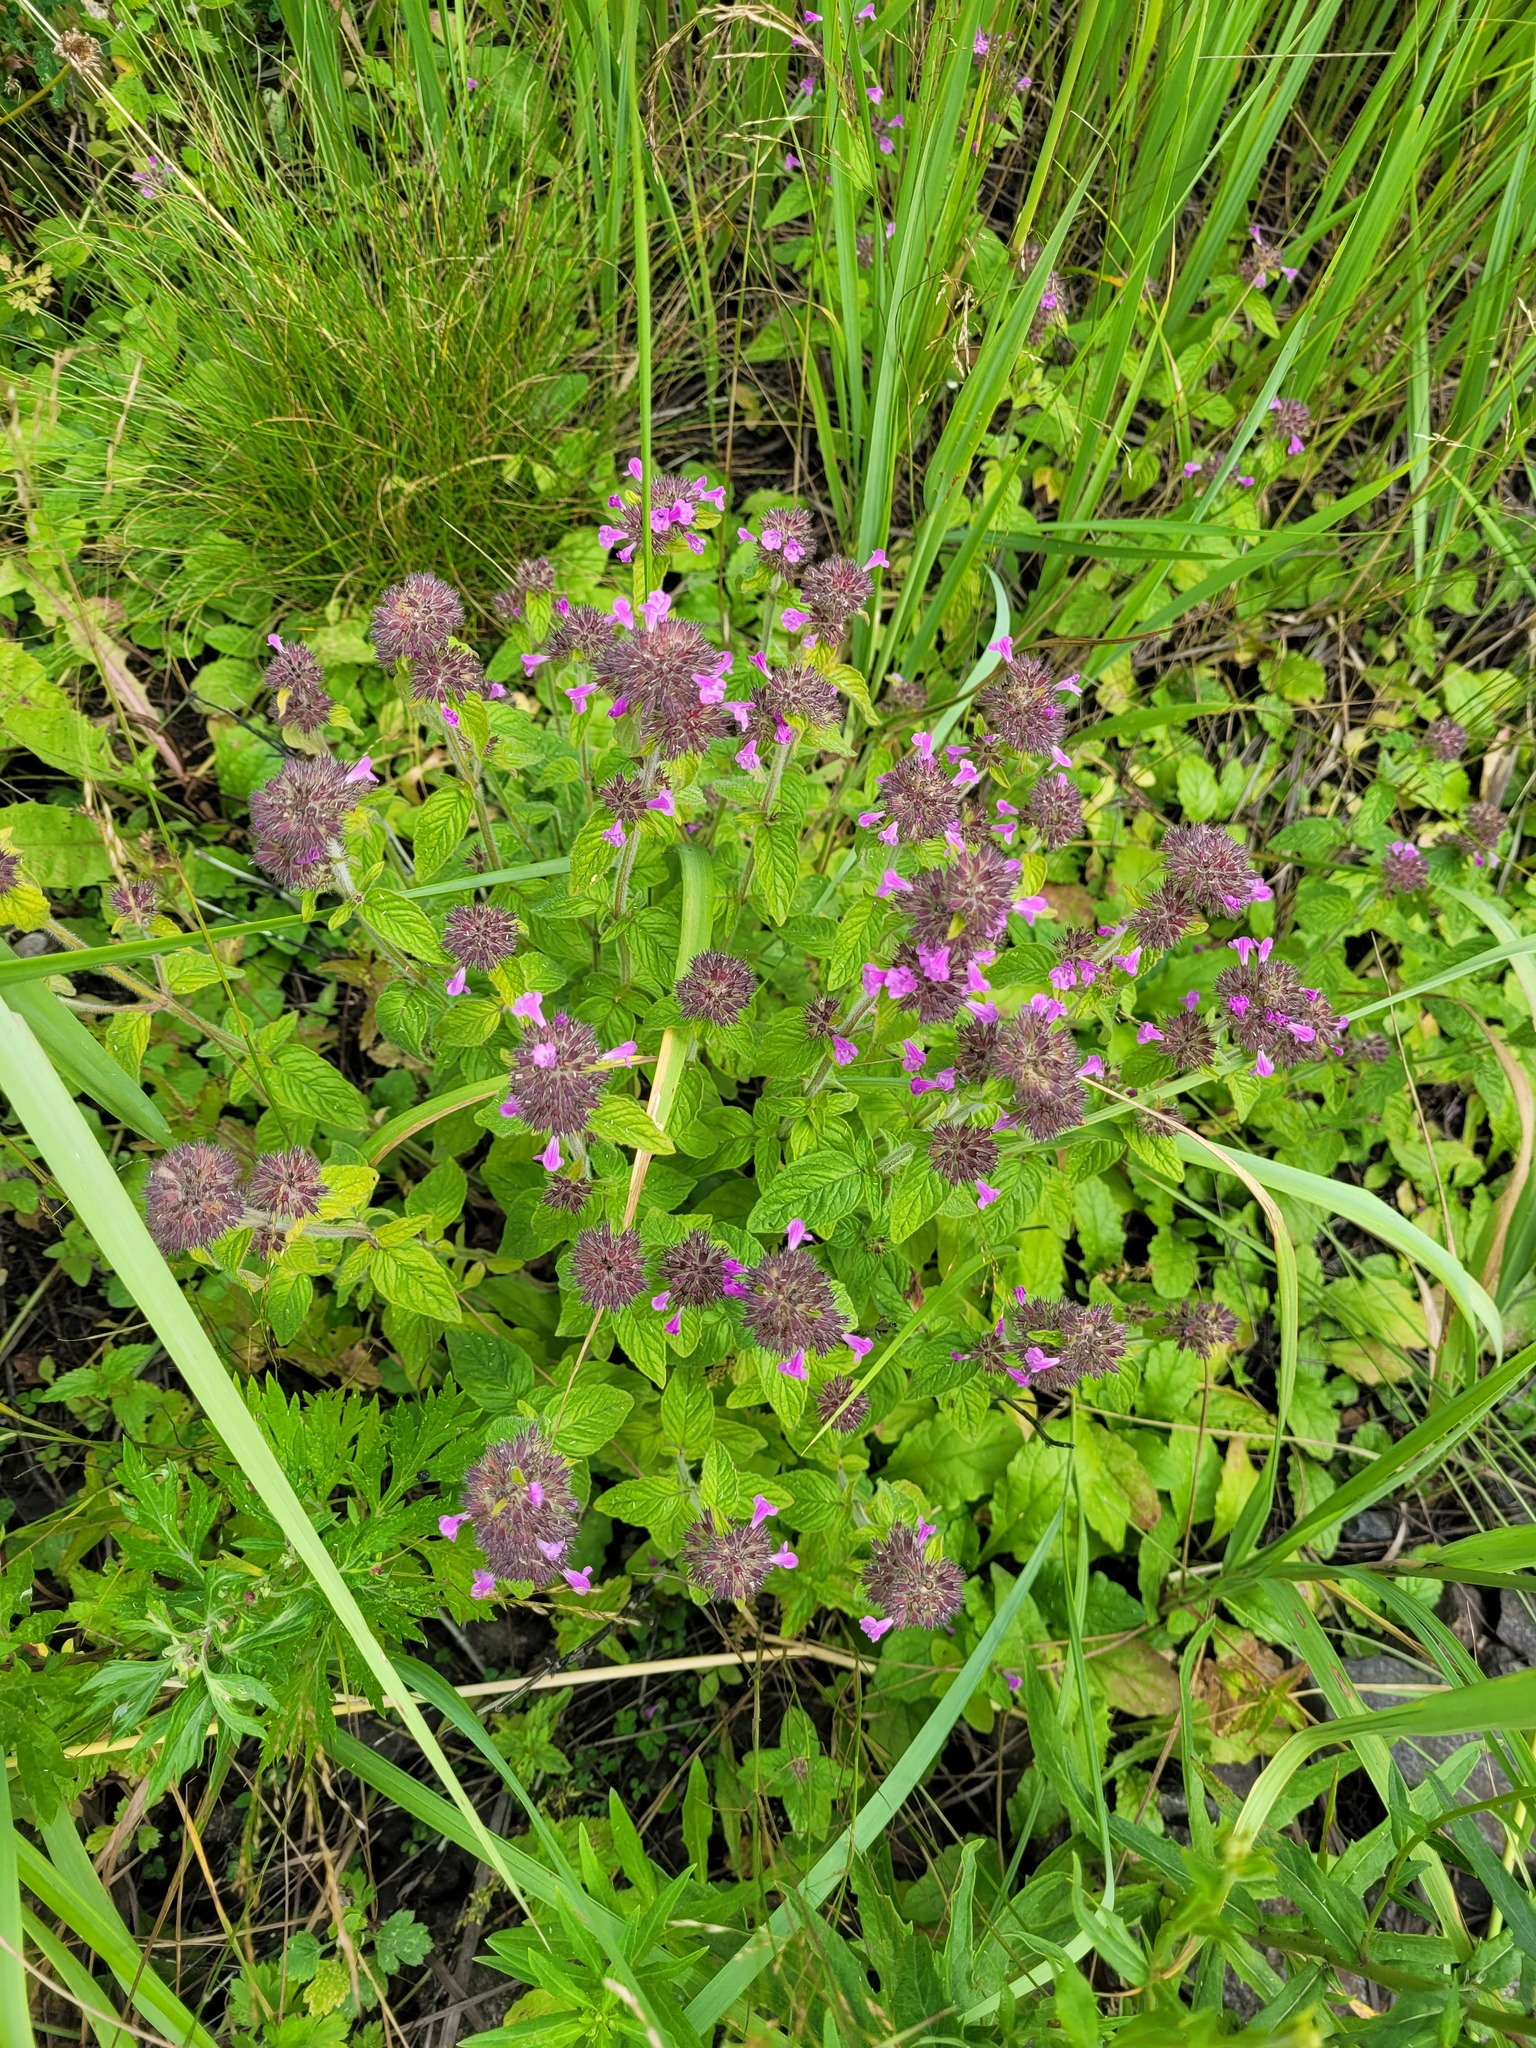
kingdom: Plantae
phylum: Tracheophyta
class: Magnoliopsida
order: Lamiales
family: Lamiaceae
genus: Clinopodium
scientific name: Clinopodium vulgare
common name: Wild basil
